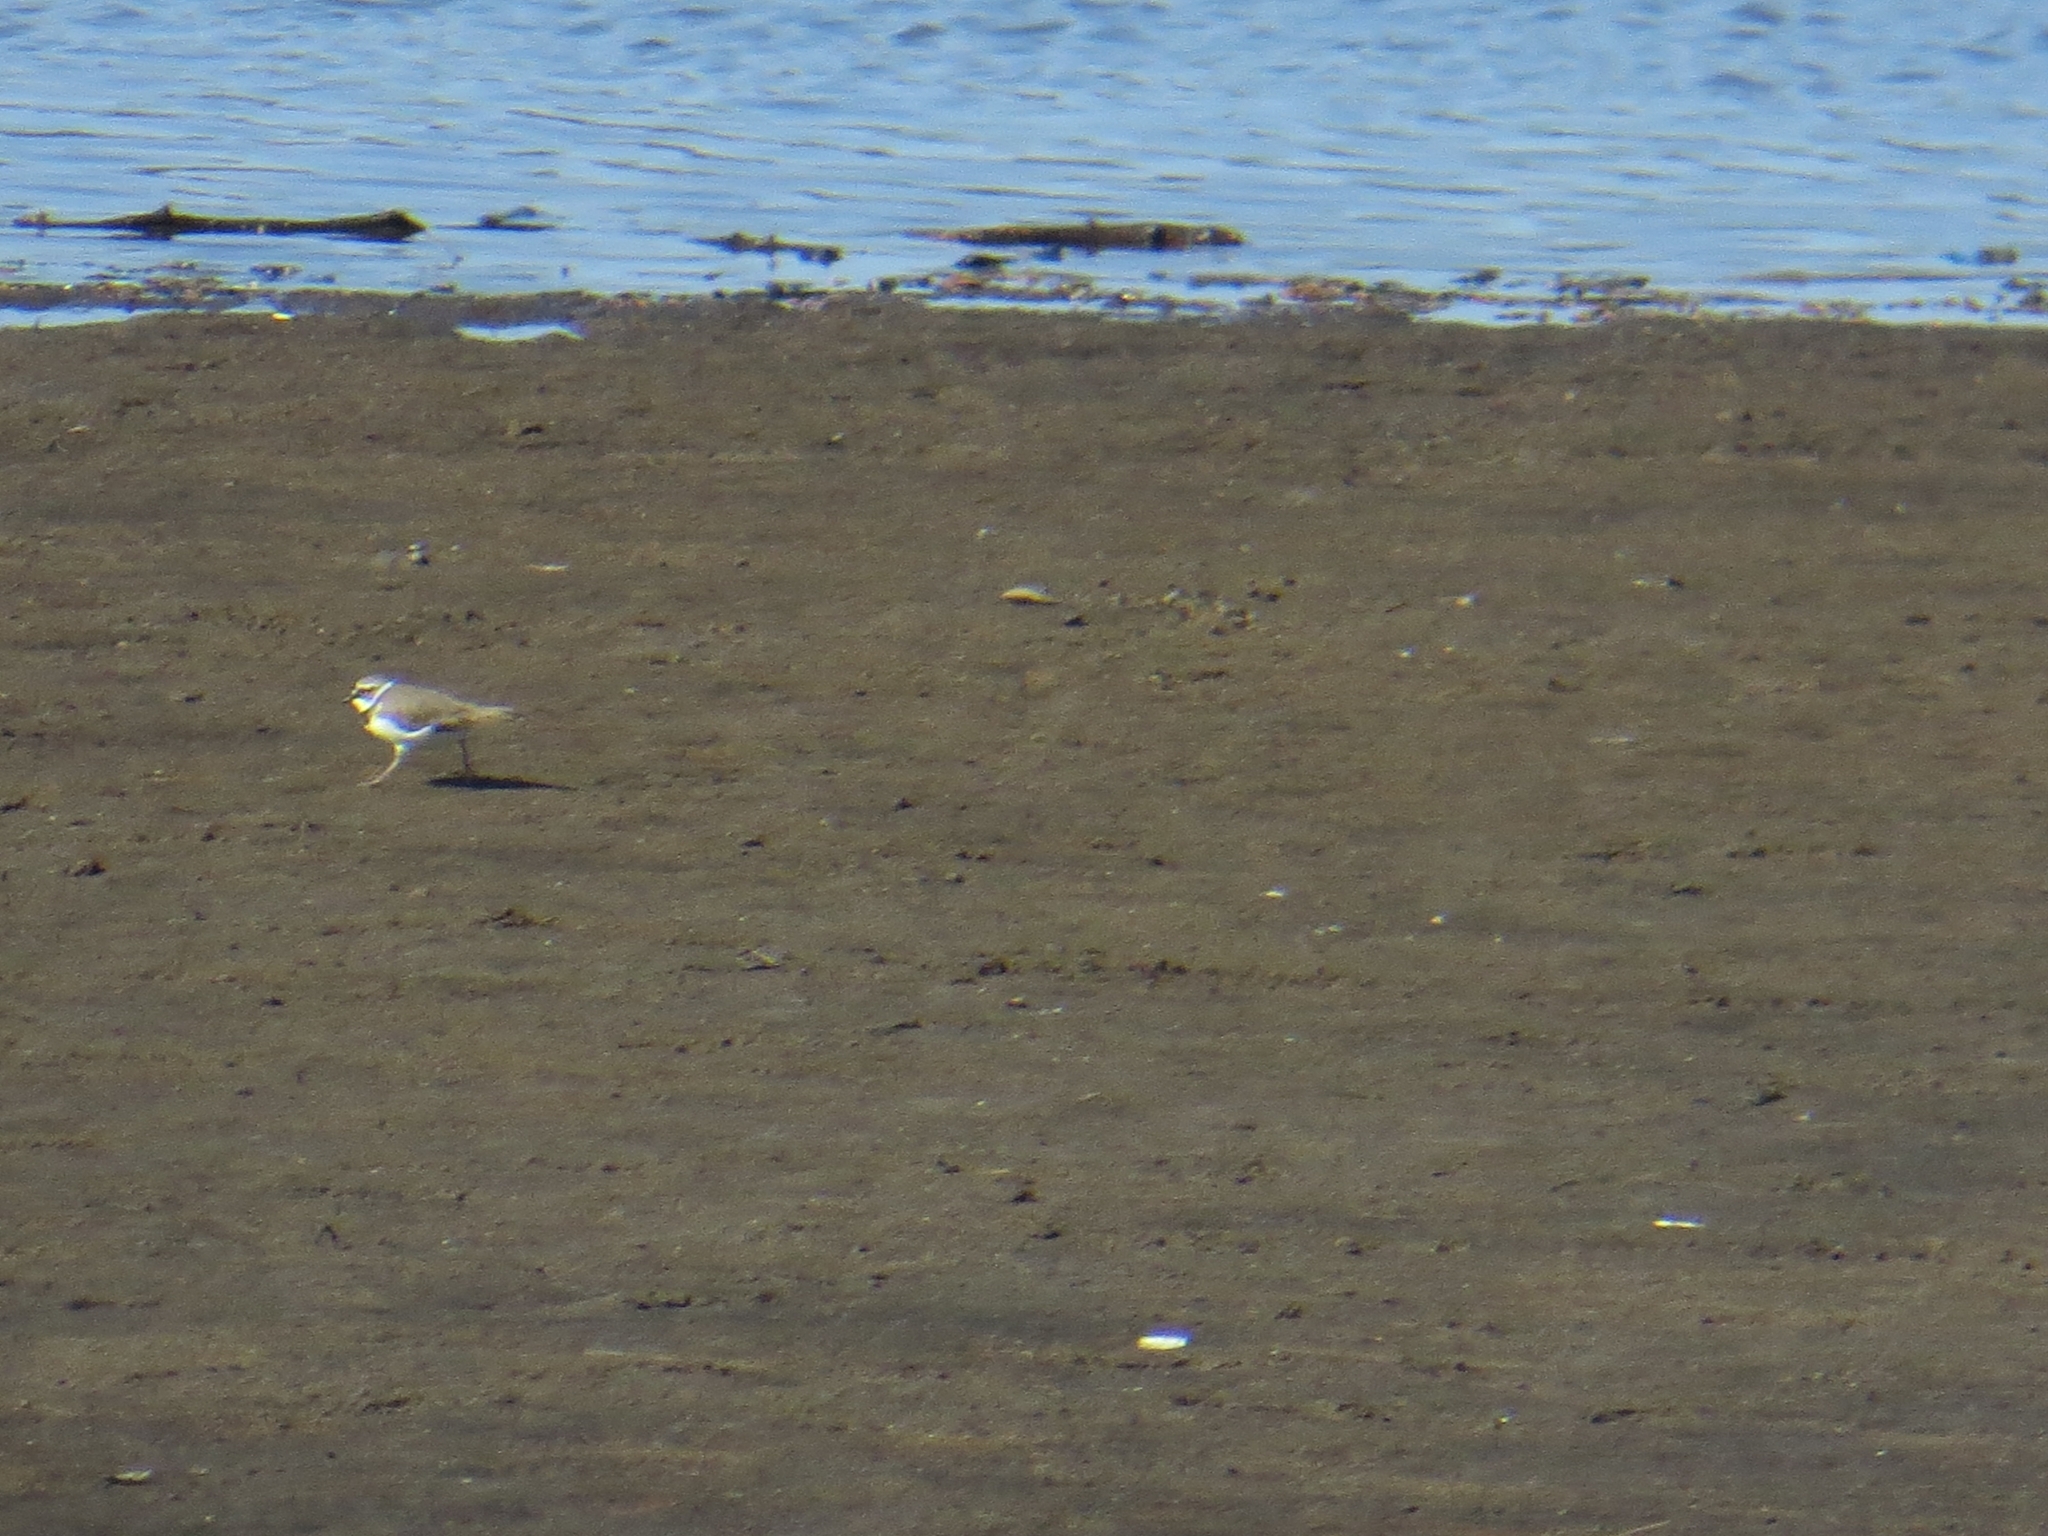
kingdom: Animalia
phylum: Chordata
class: Aves
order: Charadriiformes
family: Charadriidae
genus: Charadrius
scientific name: Charadrius dubius
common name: Little ringed plover
